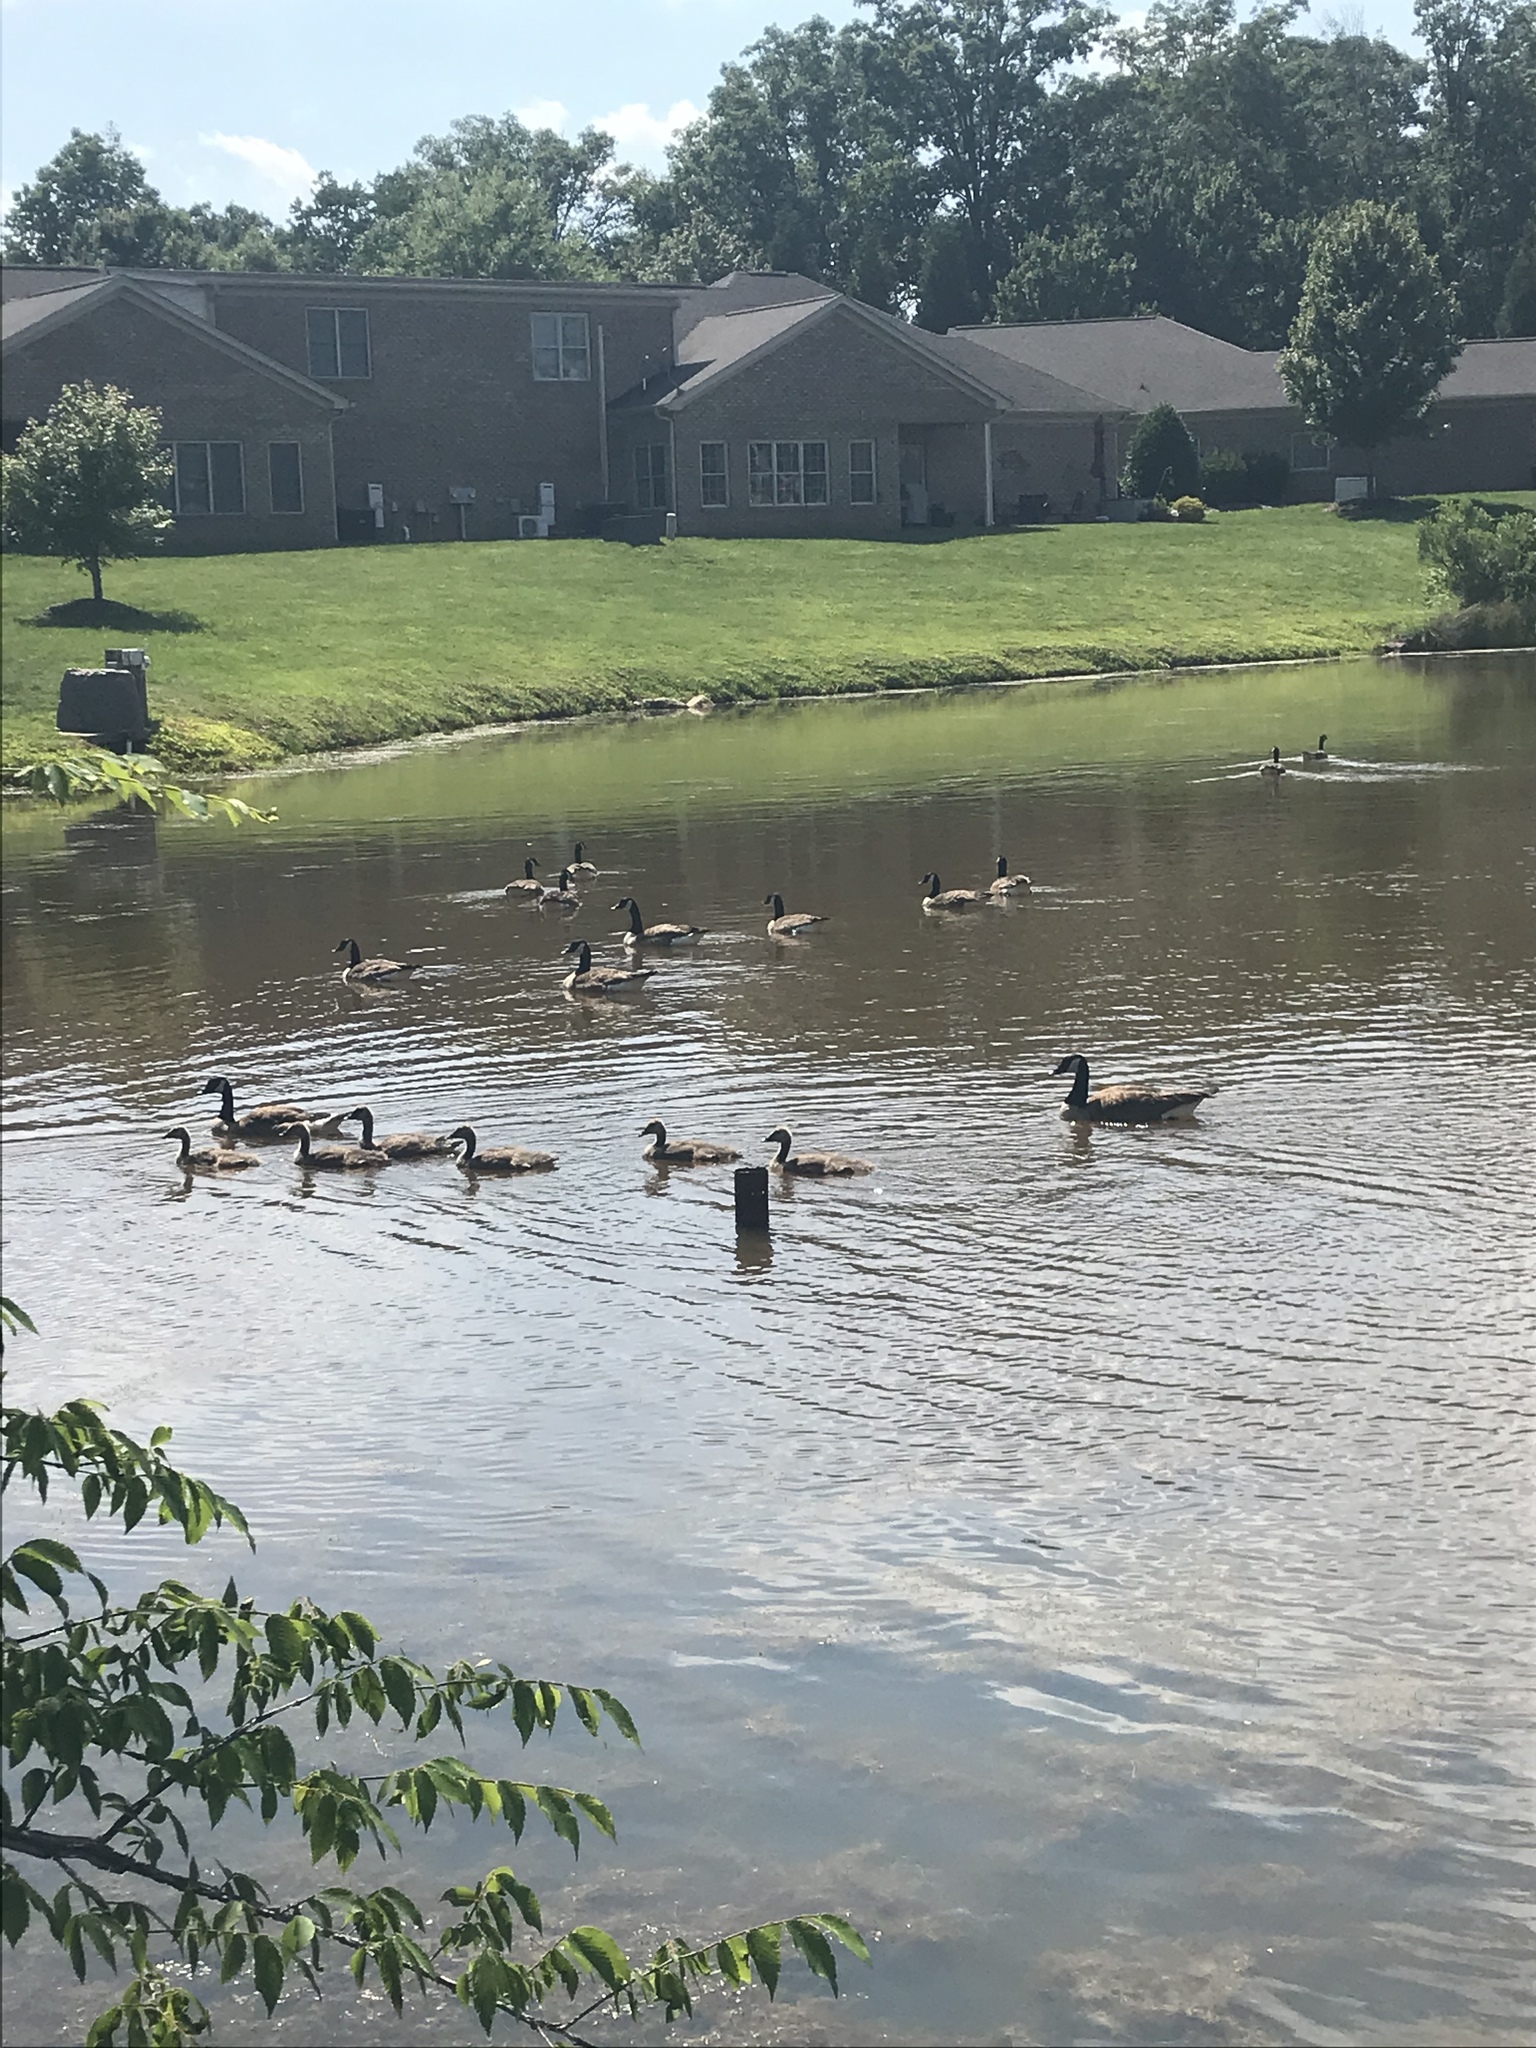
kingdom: Animalia
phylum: Chordata
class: Aves
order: Anseriformes
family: Anatidae
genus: Branta
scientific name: Branta canadensis
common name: Canada goose
